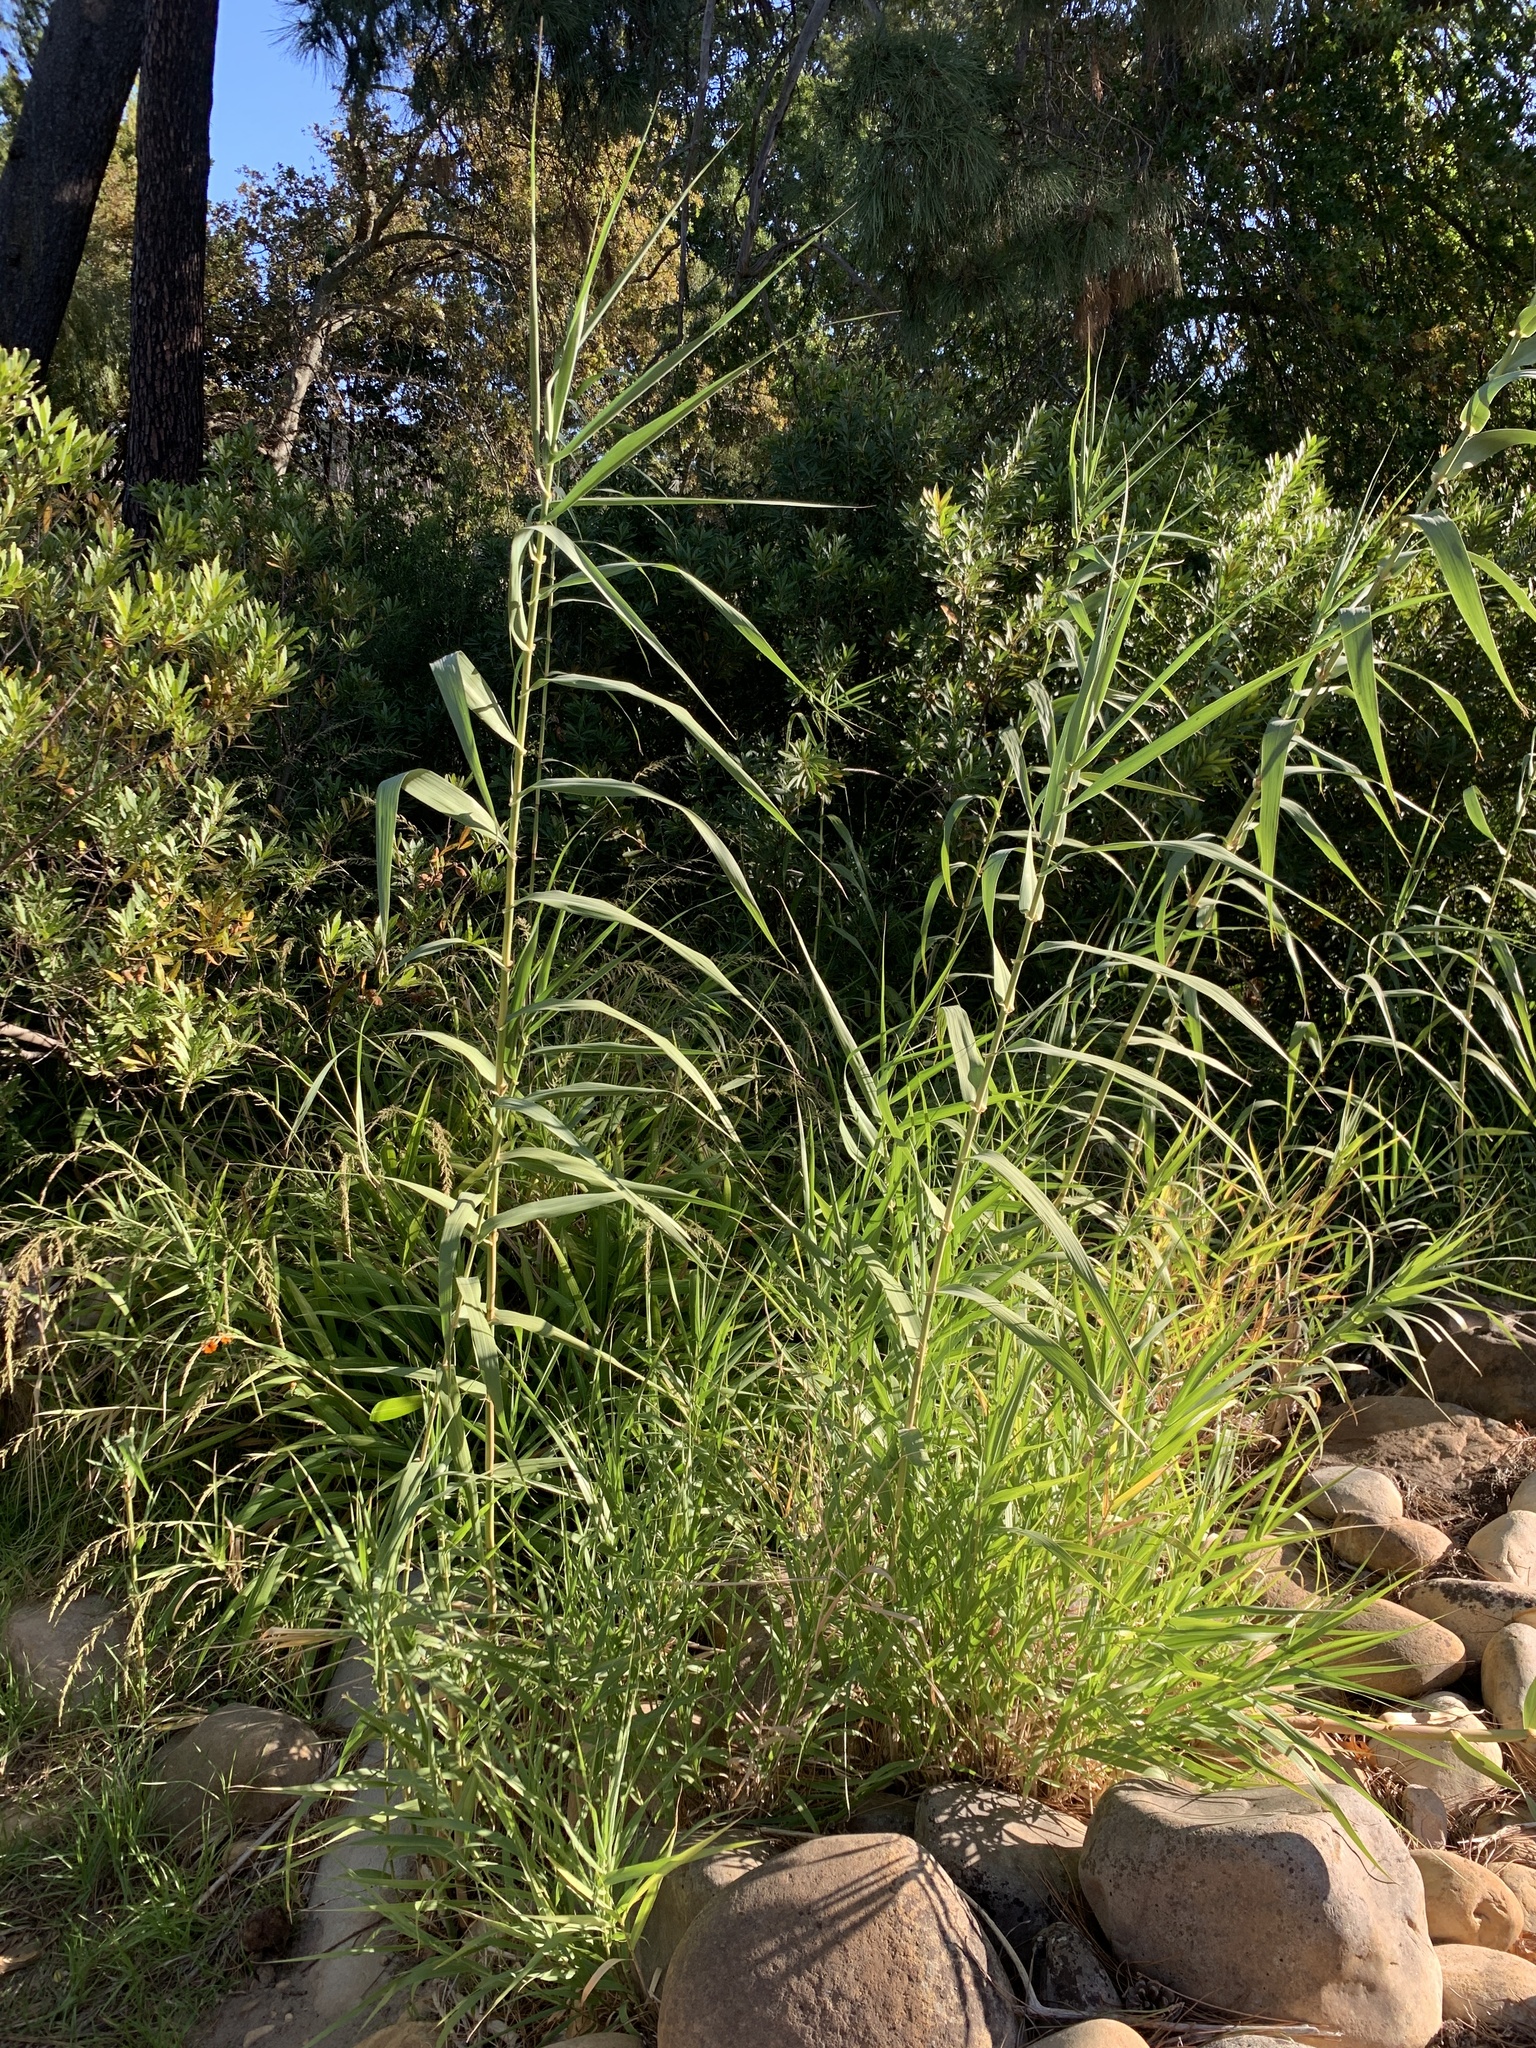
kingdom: Plantae
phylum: Tracheophyta
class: Liliopsida
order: Poales
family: Poaceae
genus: Arundo
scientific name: Arundo donax
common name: Giant reed
